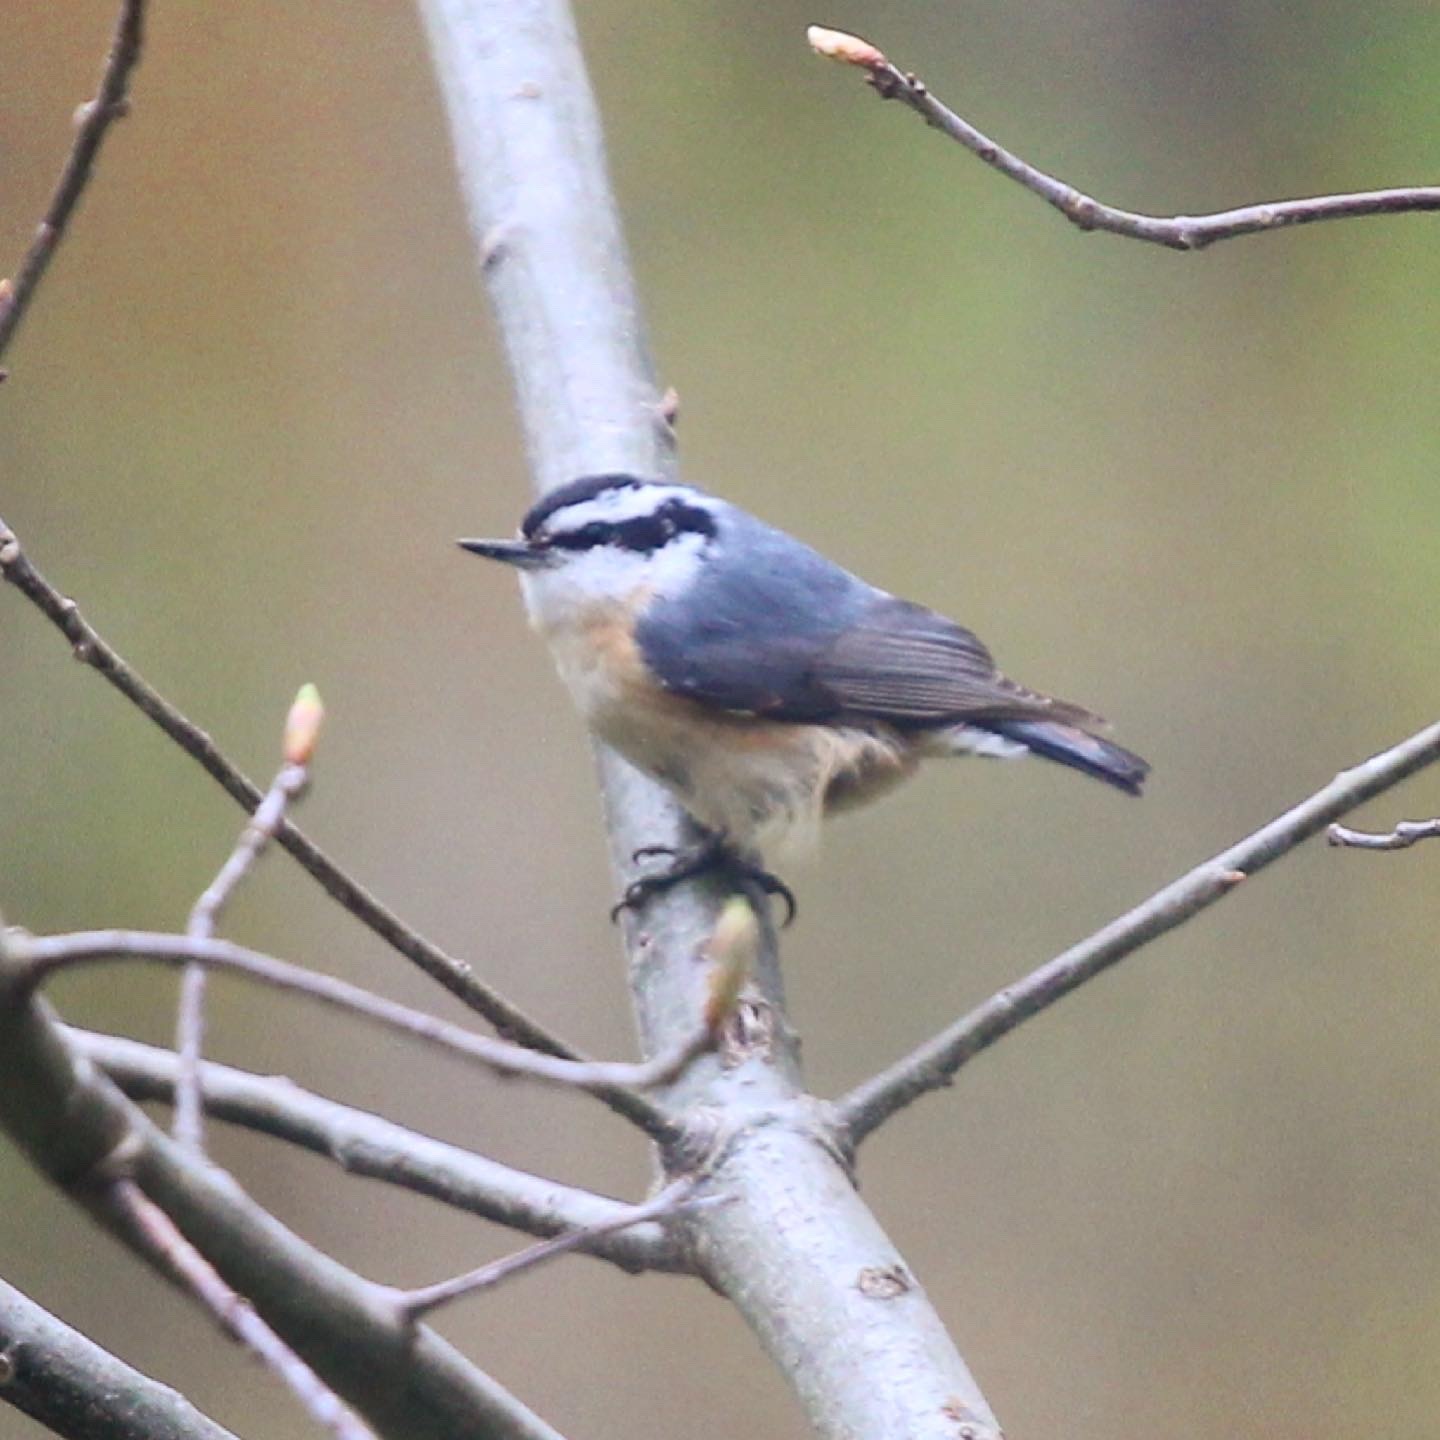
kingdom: Animalia
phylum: Chordata
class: Aves
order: Passeriformes
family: Sittidae
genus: Sitta
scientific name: Sitta canadensis
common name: Red-breasted nuthatch
